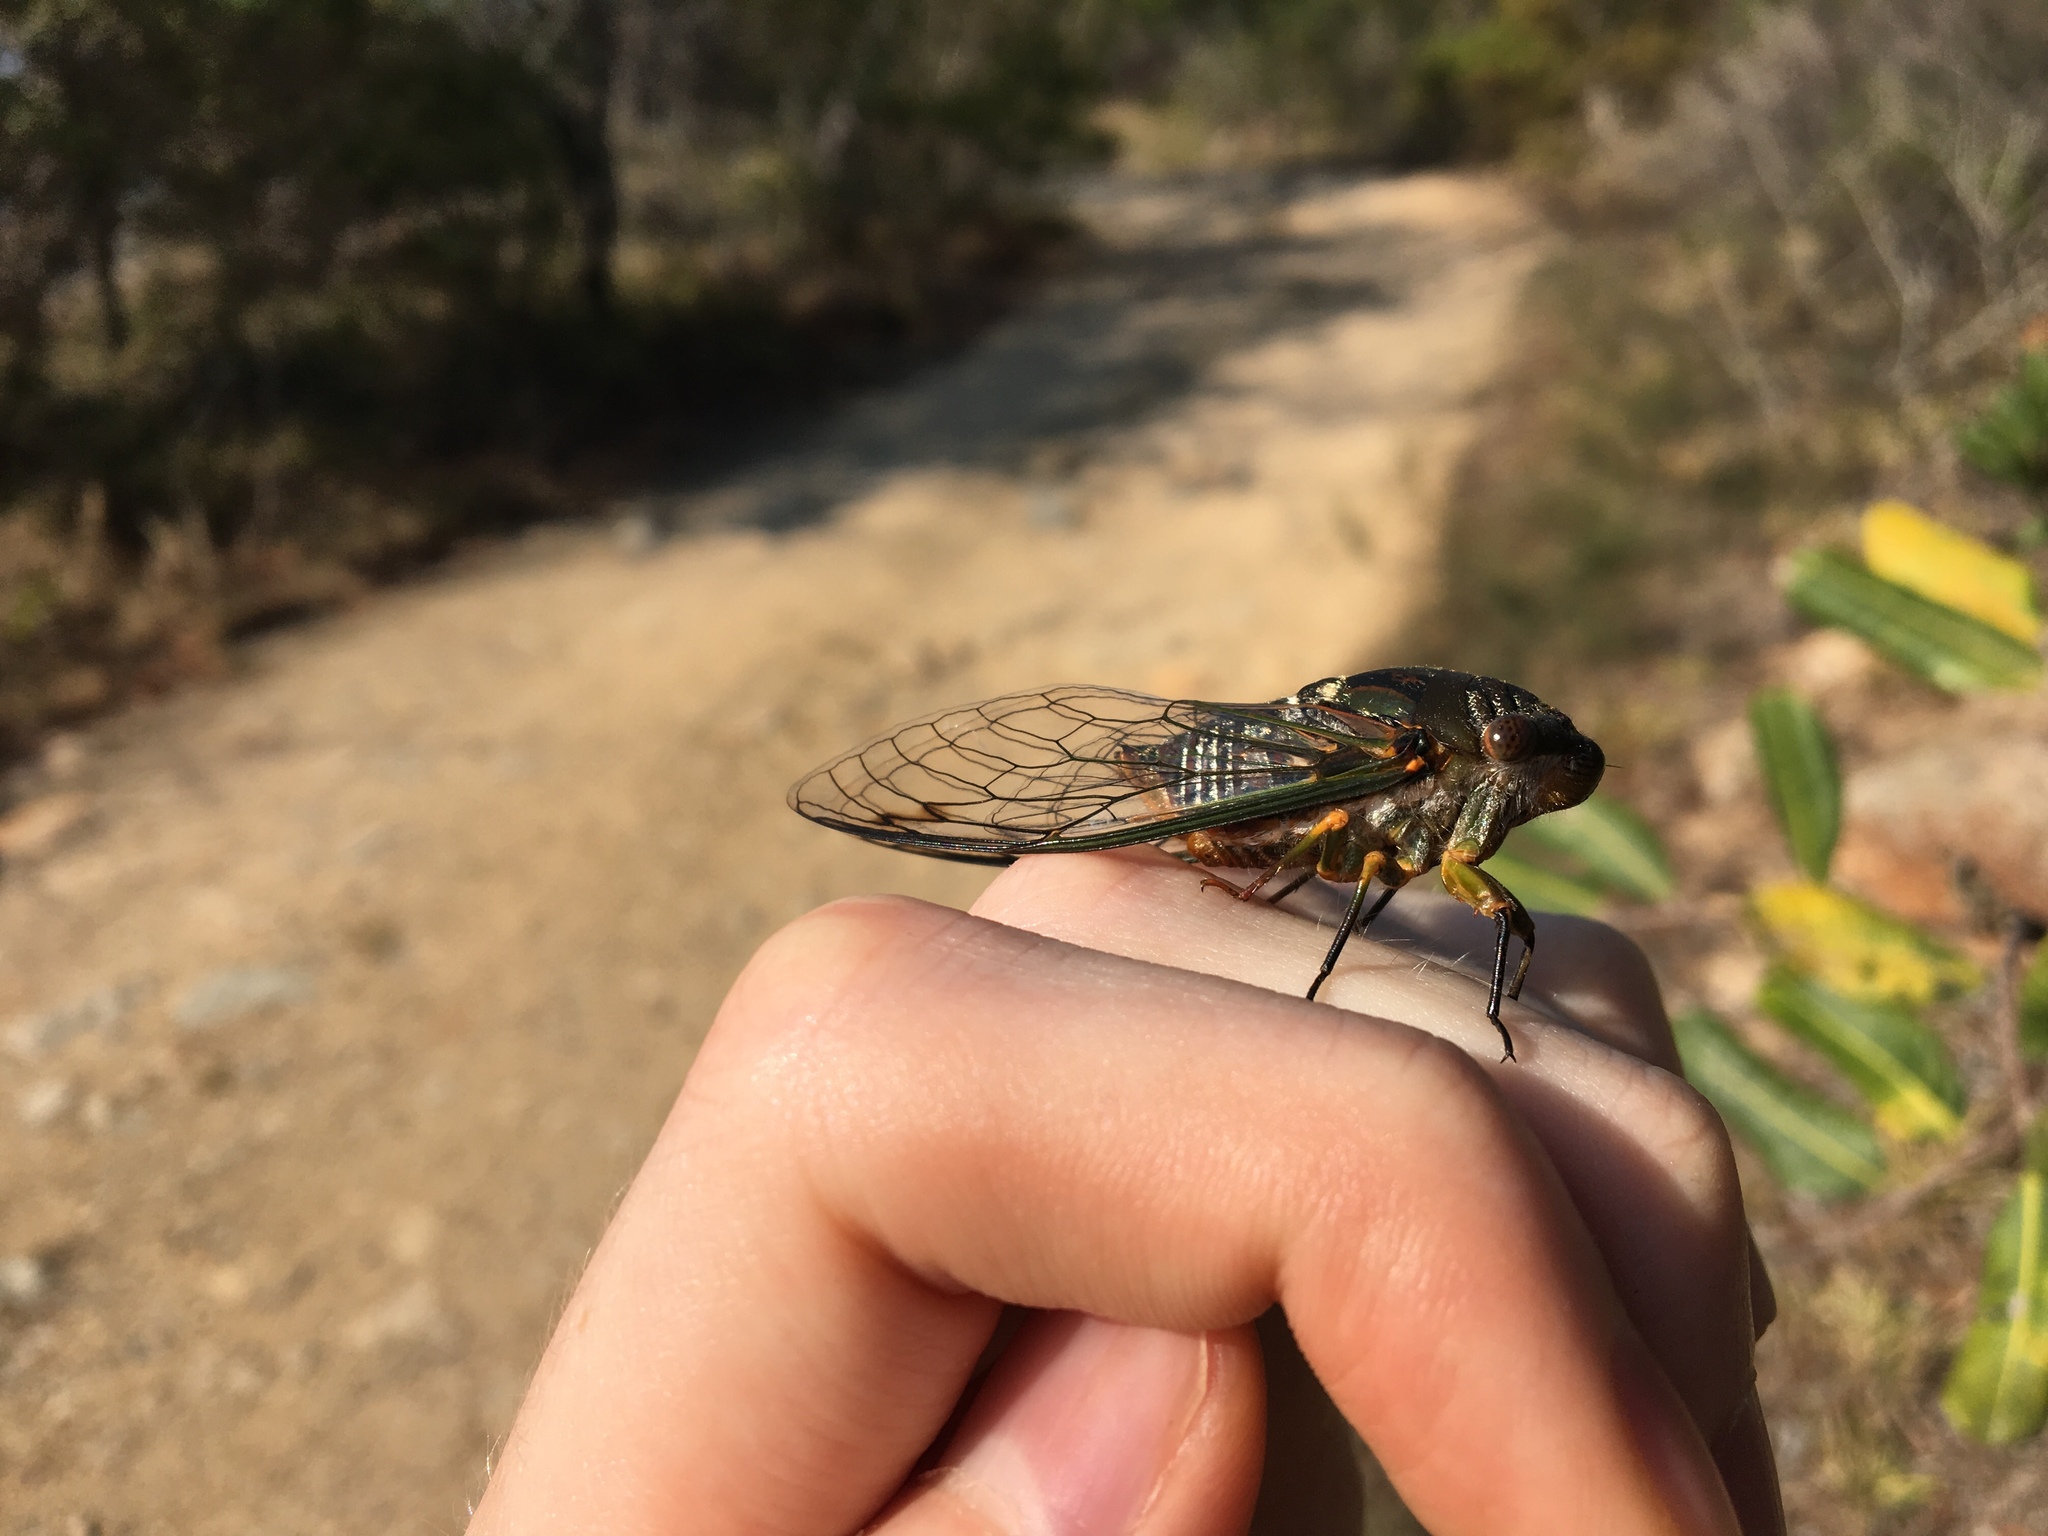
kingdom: Animalia
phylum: Arthropoda
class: Insecta
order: Hemiptera
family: Cicadidae
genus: Psaltoda
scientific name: Psaltoda plaga
